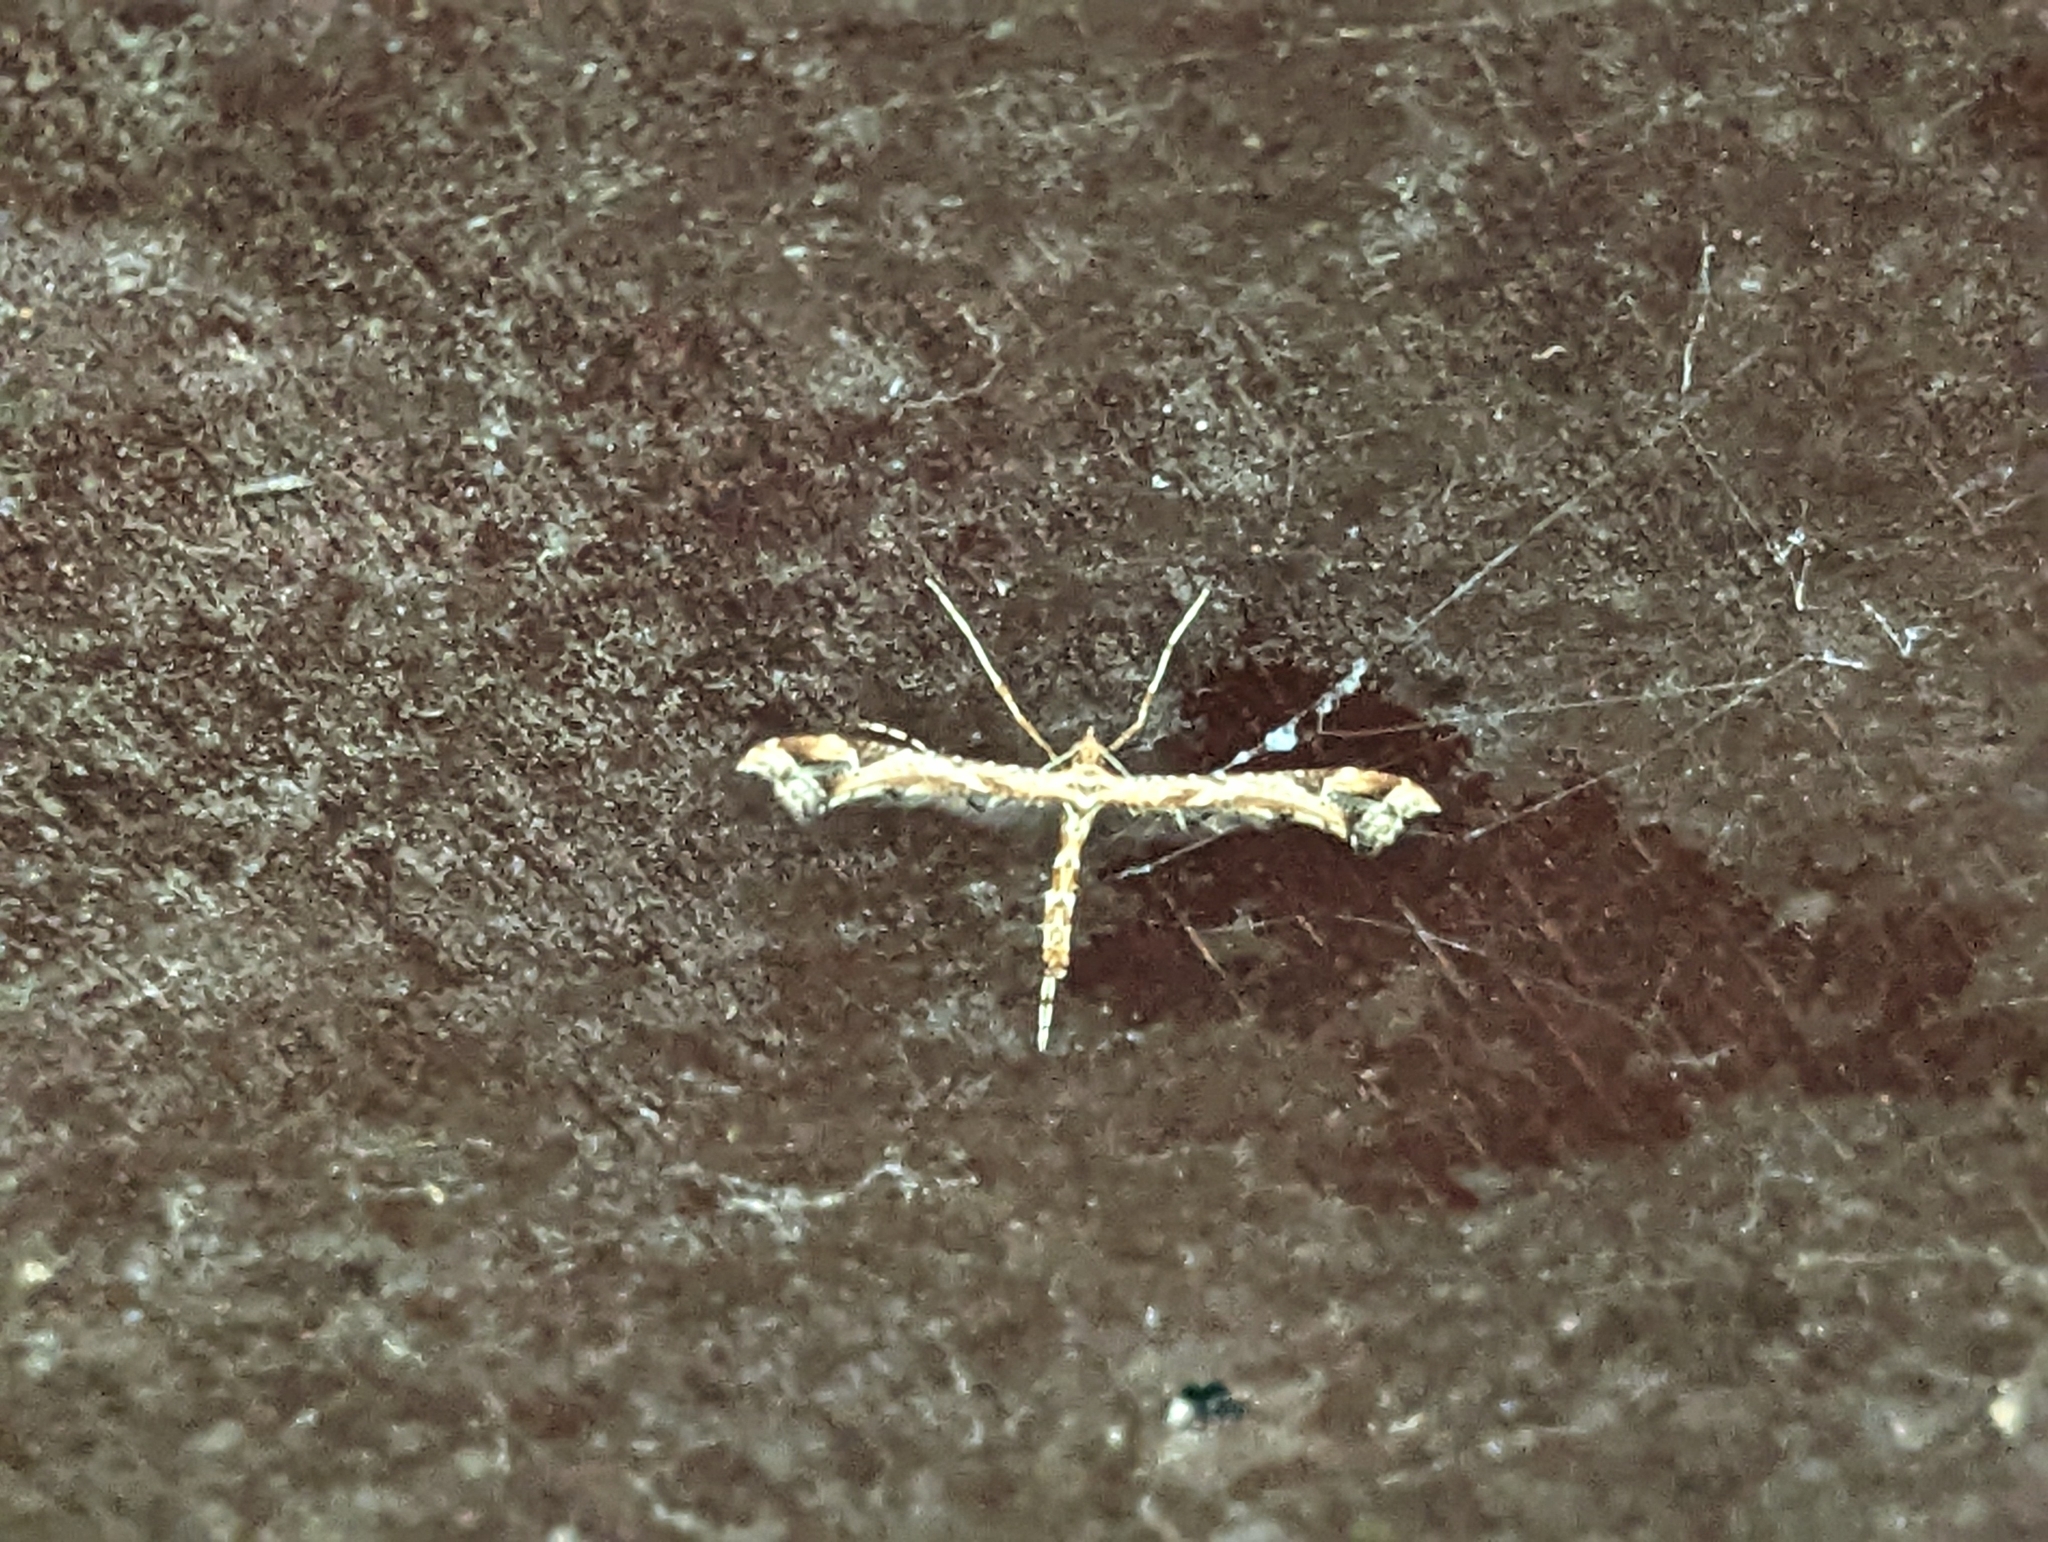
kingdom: Animalia
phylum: Arthropoda
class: Insecta
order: Lepidoptera
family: Pterophoridae
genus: Amblyptilia
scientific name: Amblyptilia acanthadactyla
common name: Beautiful plume
